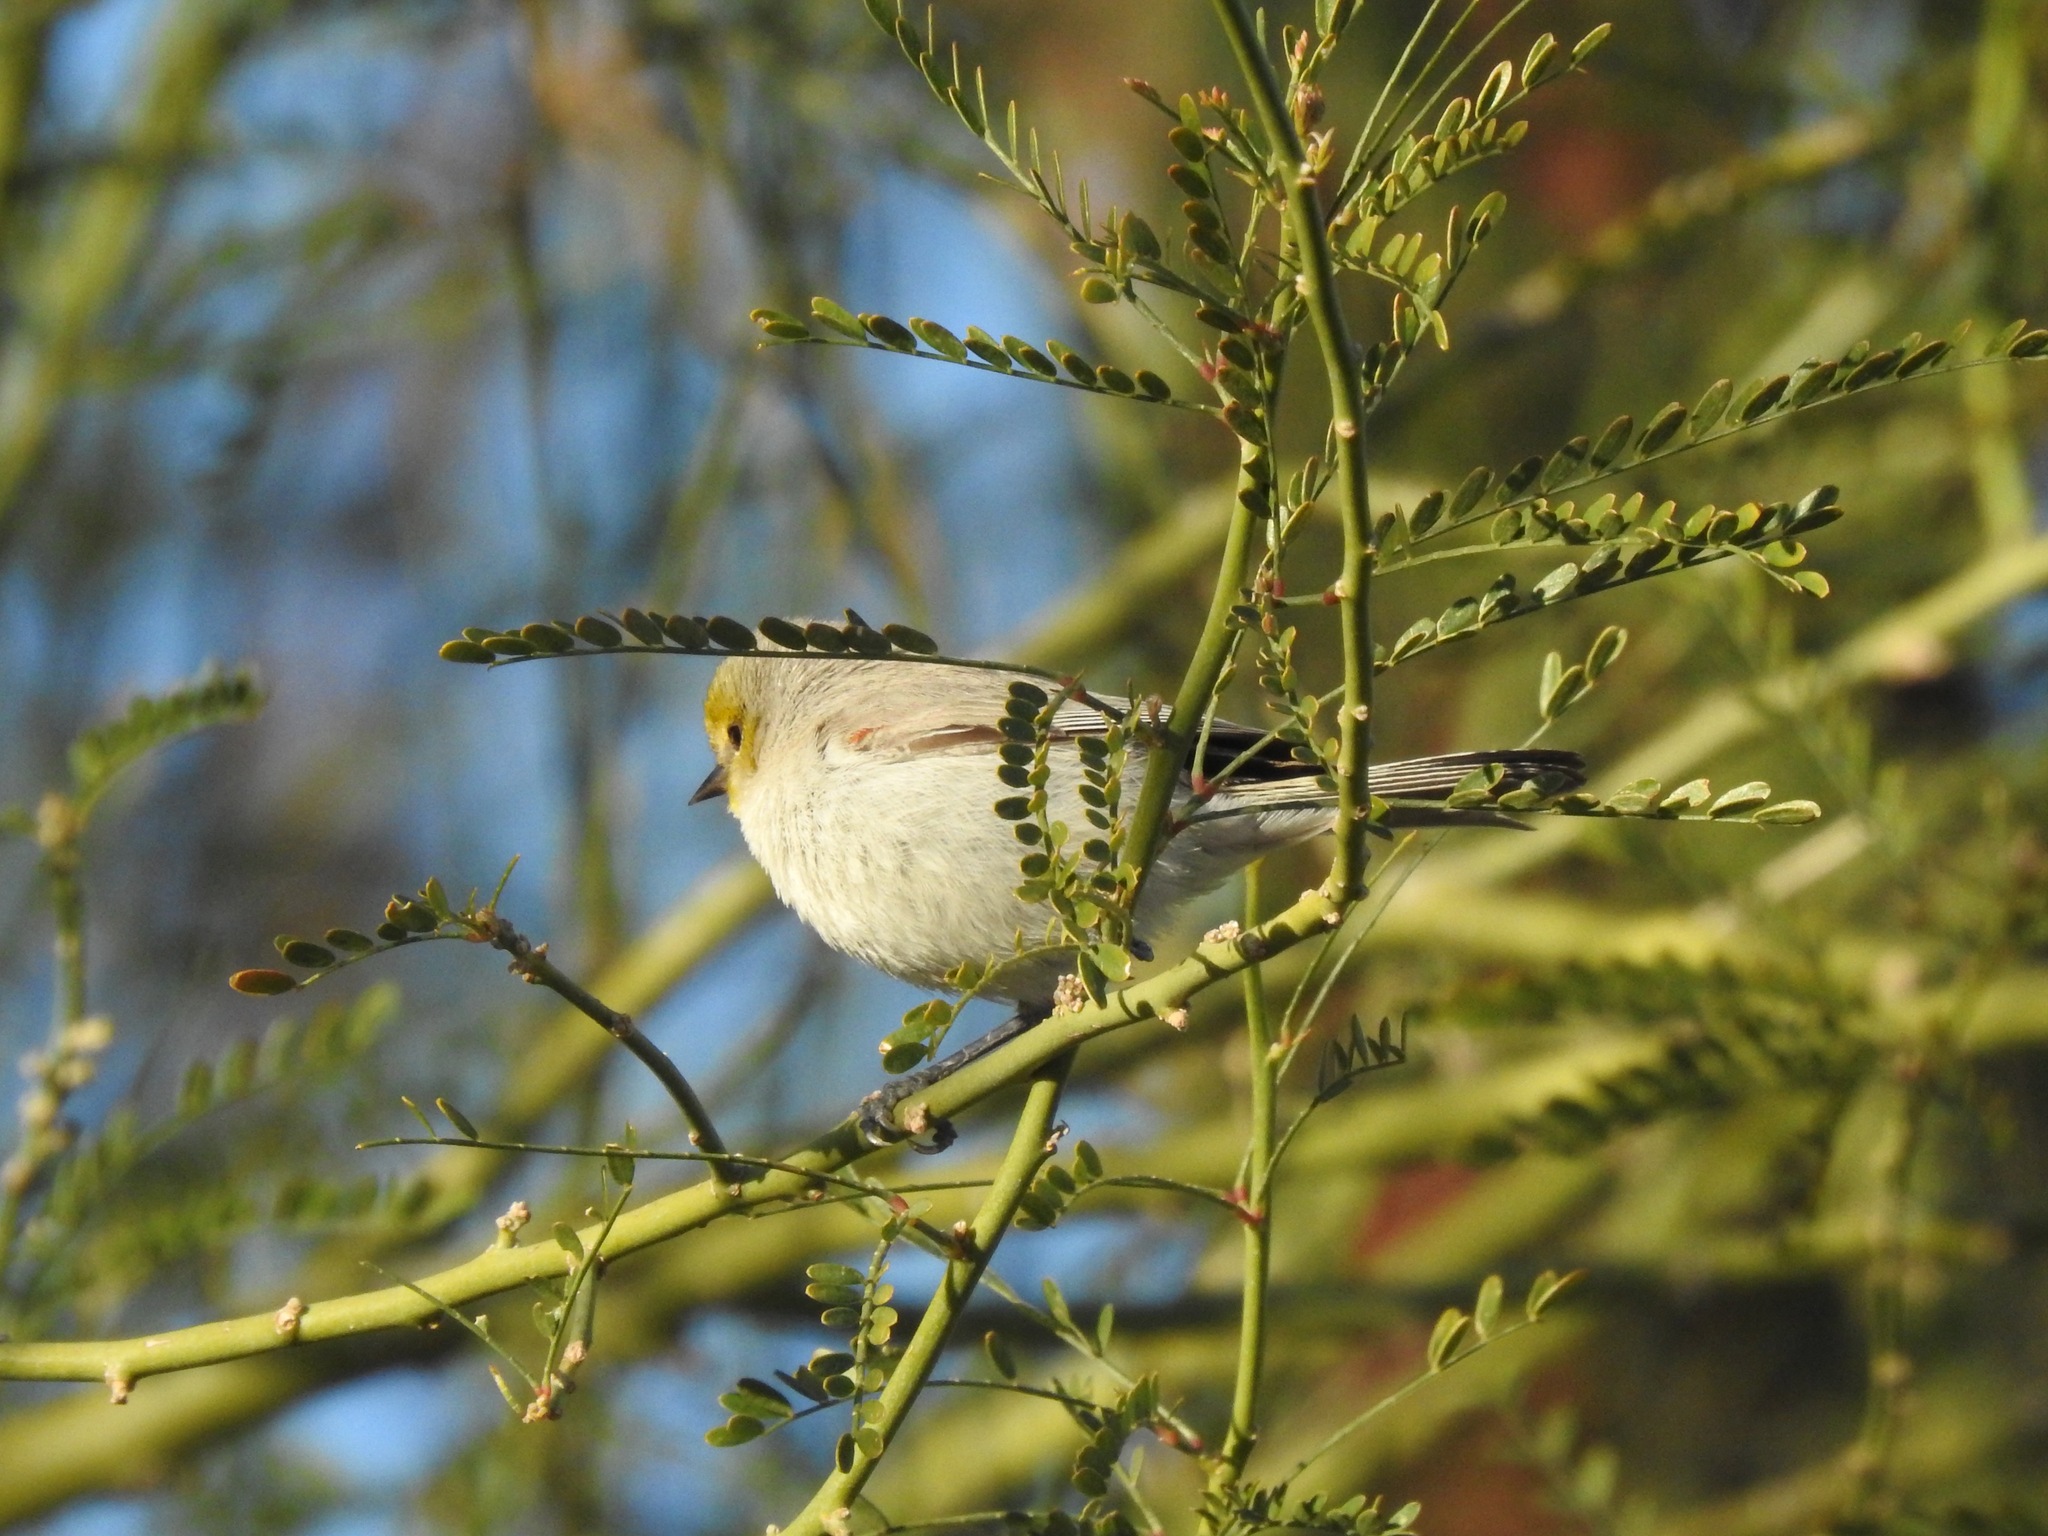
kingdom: Animalia
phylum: Chordata
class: Aves
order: Passeriformes
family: Remizidae
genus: Auriparus
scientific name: Auriparus flaviceps
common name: Verdin
